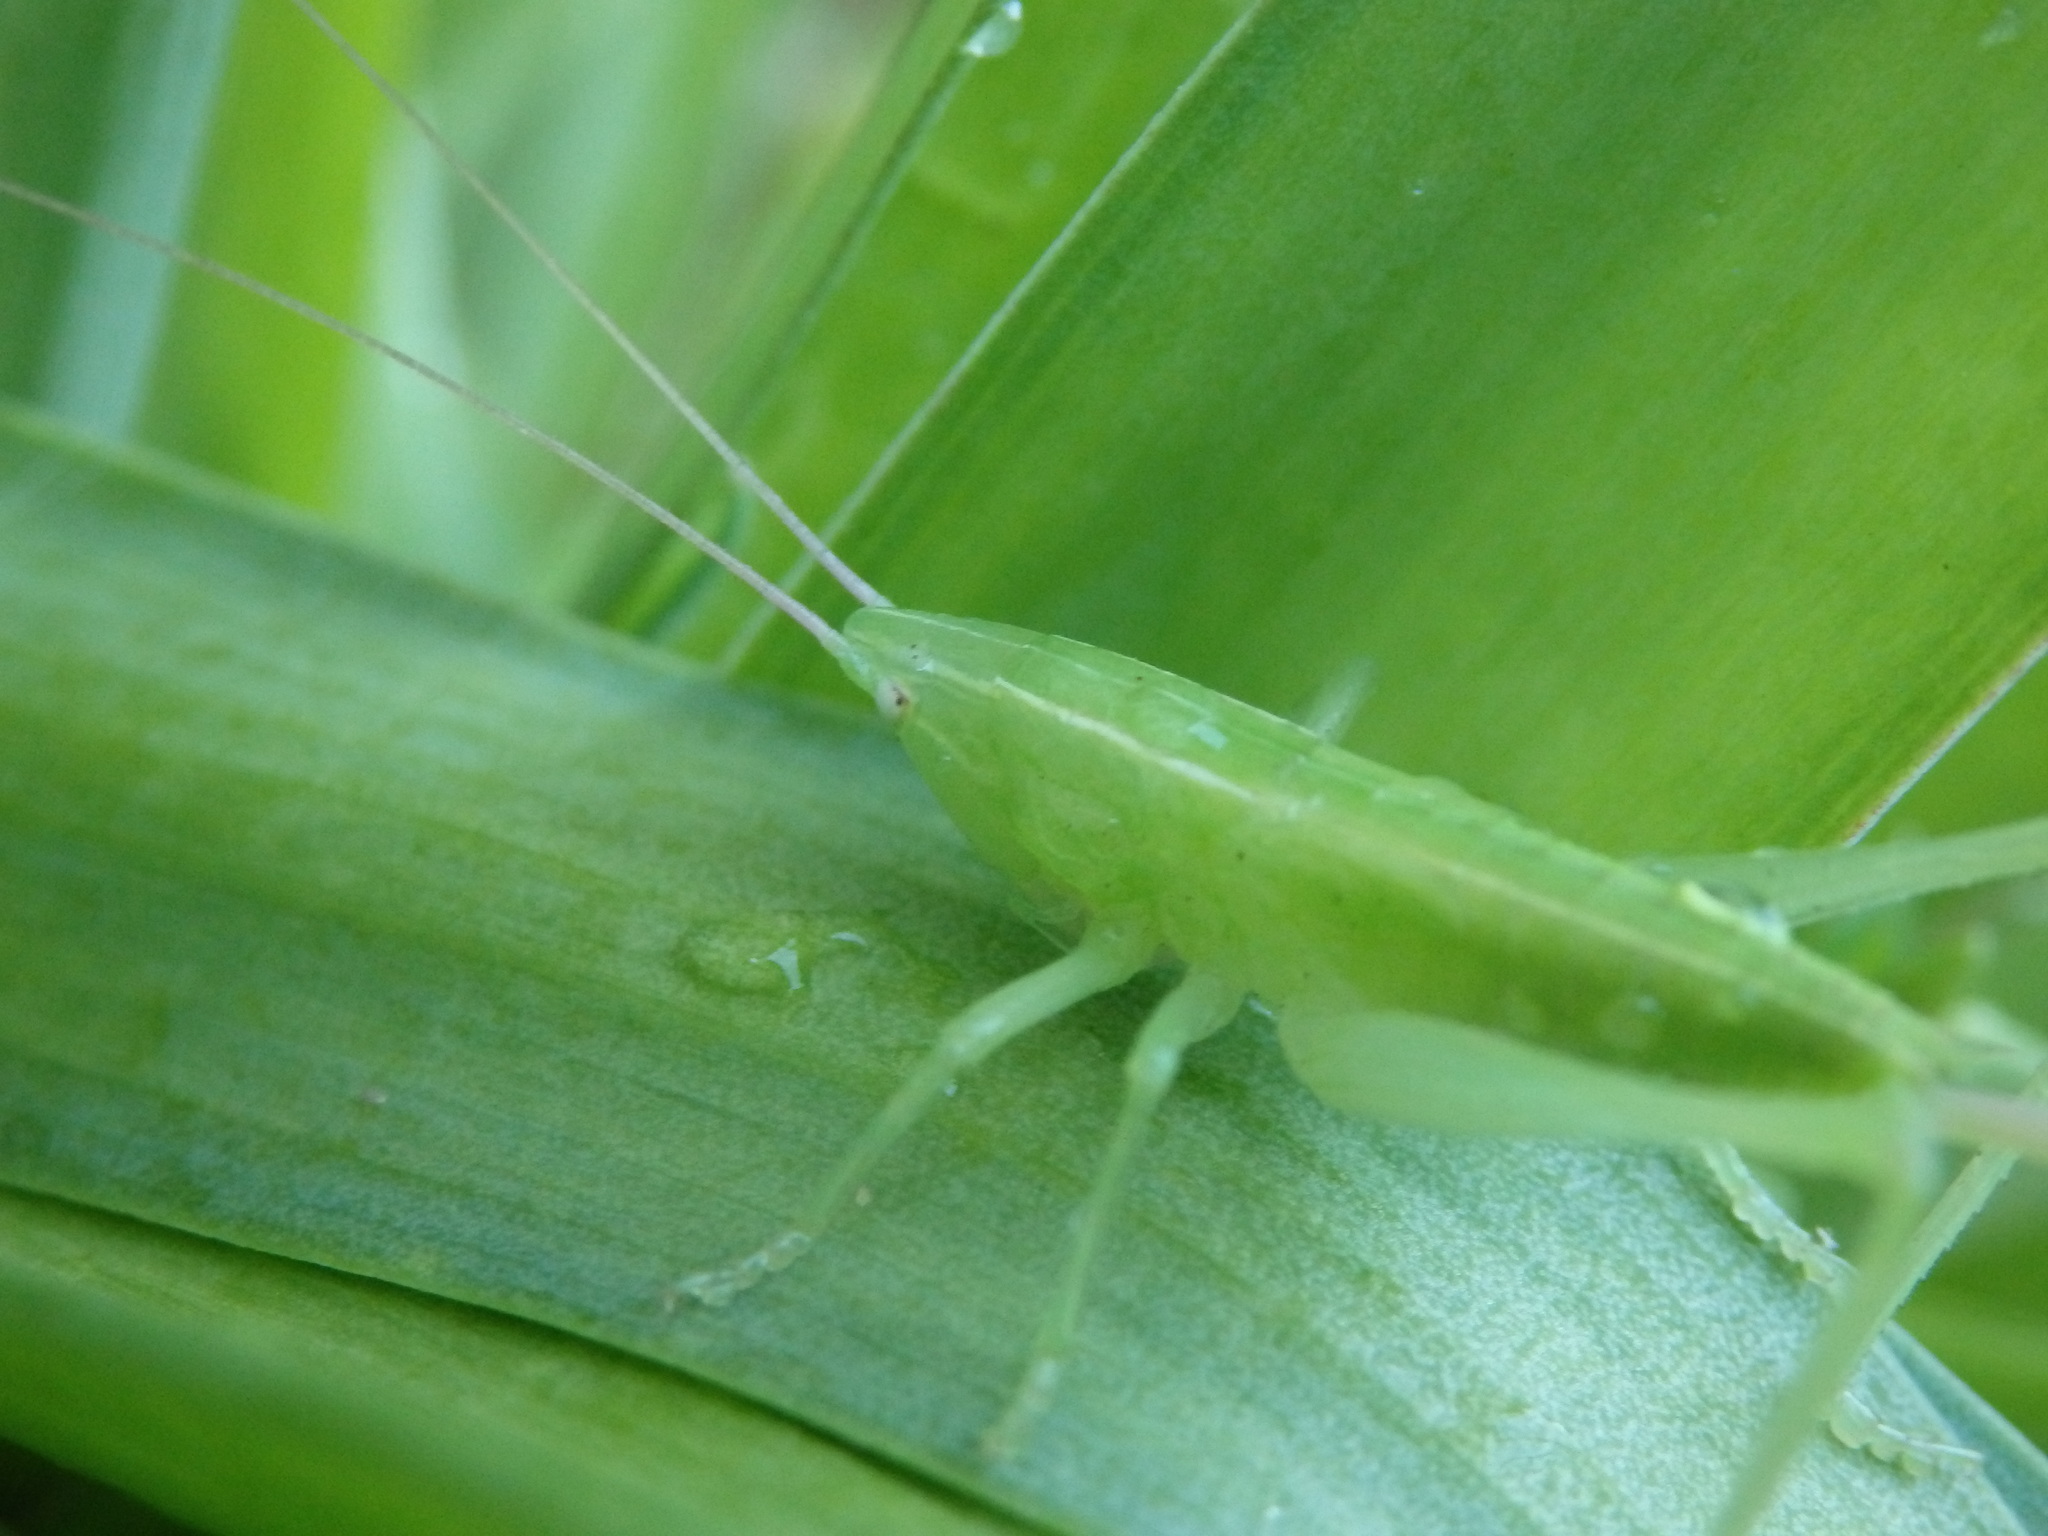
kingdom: Animalia
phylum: Arthropoda
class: Insecta
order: Orthoptera
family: Tettigoniidae
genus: Ruspolia
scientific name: Ruspolia nitidula
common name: Large conehead
